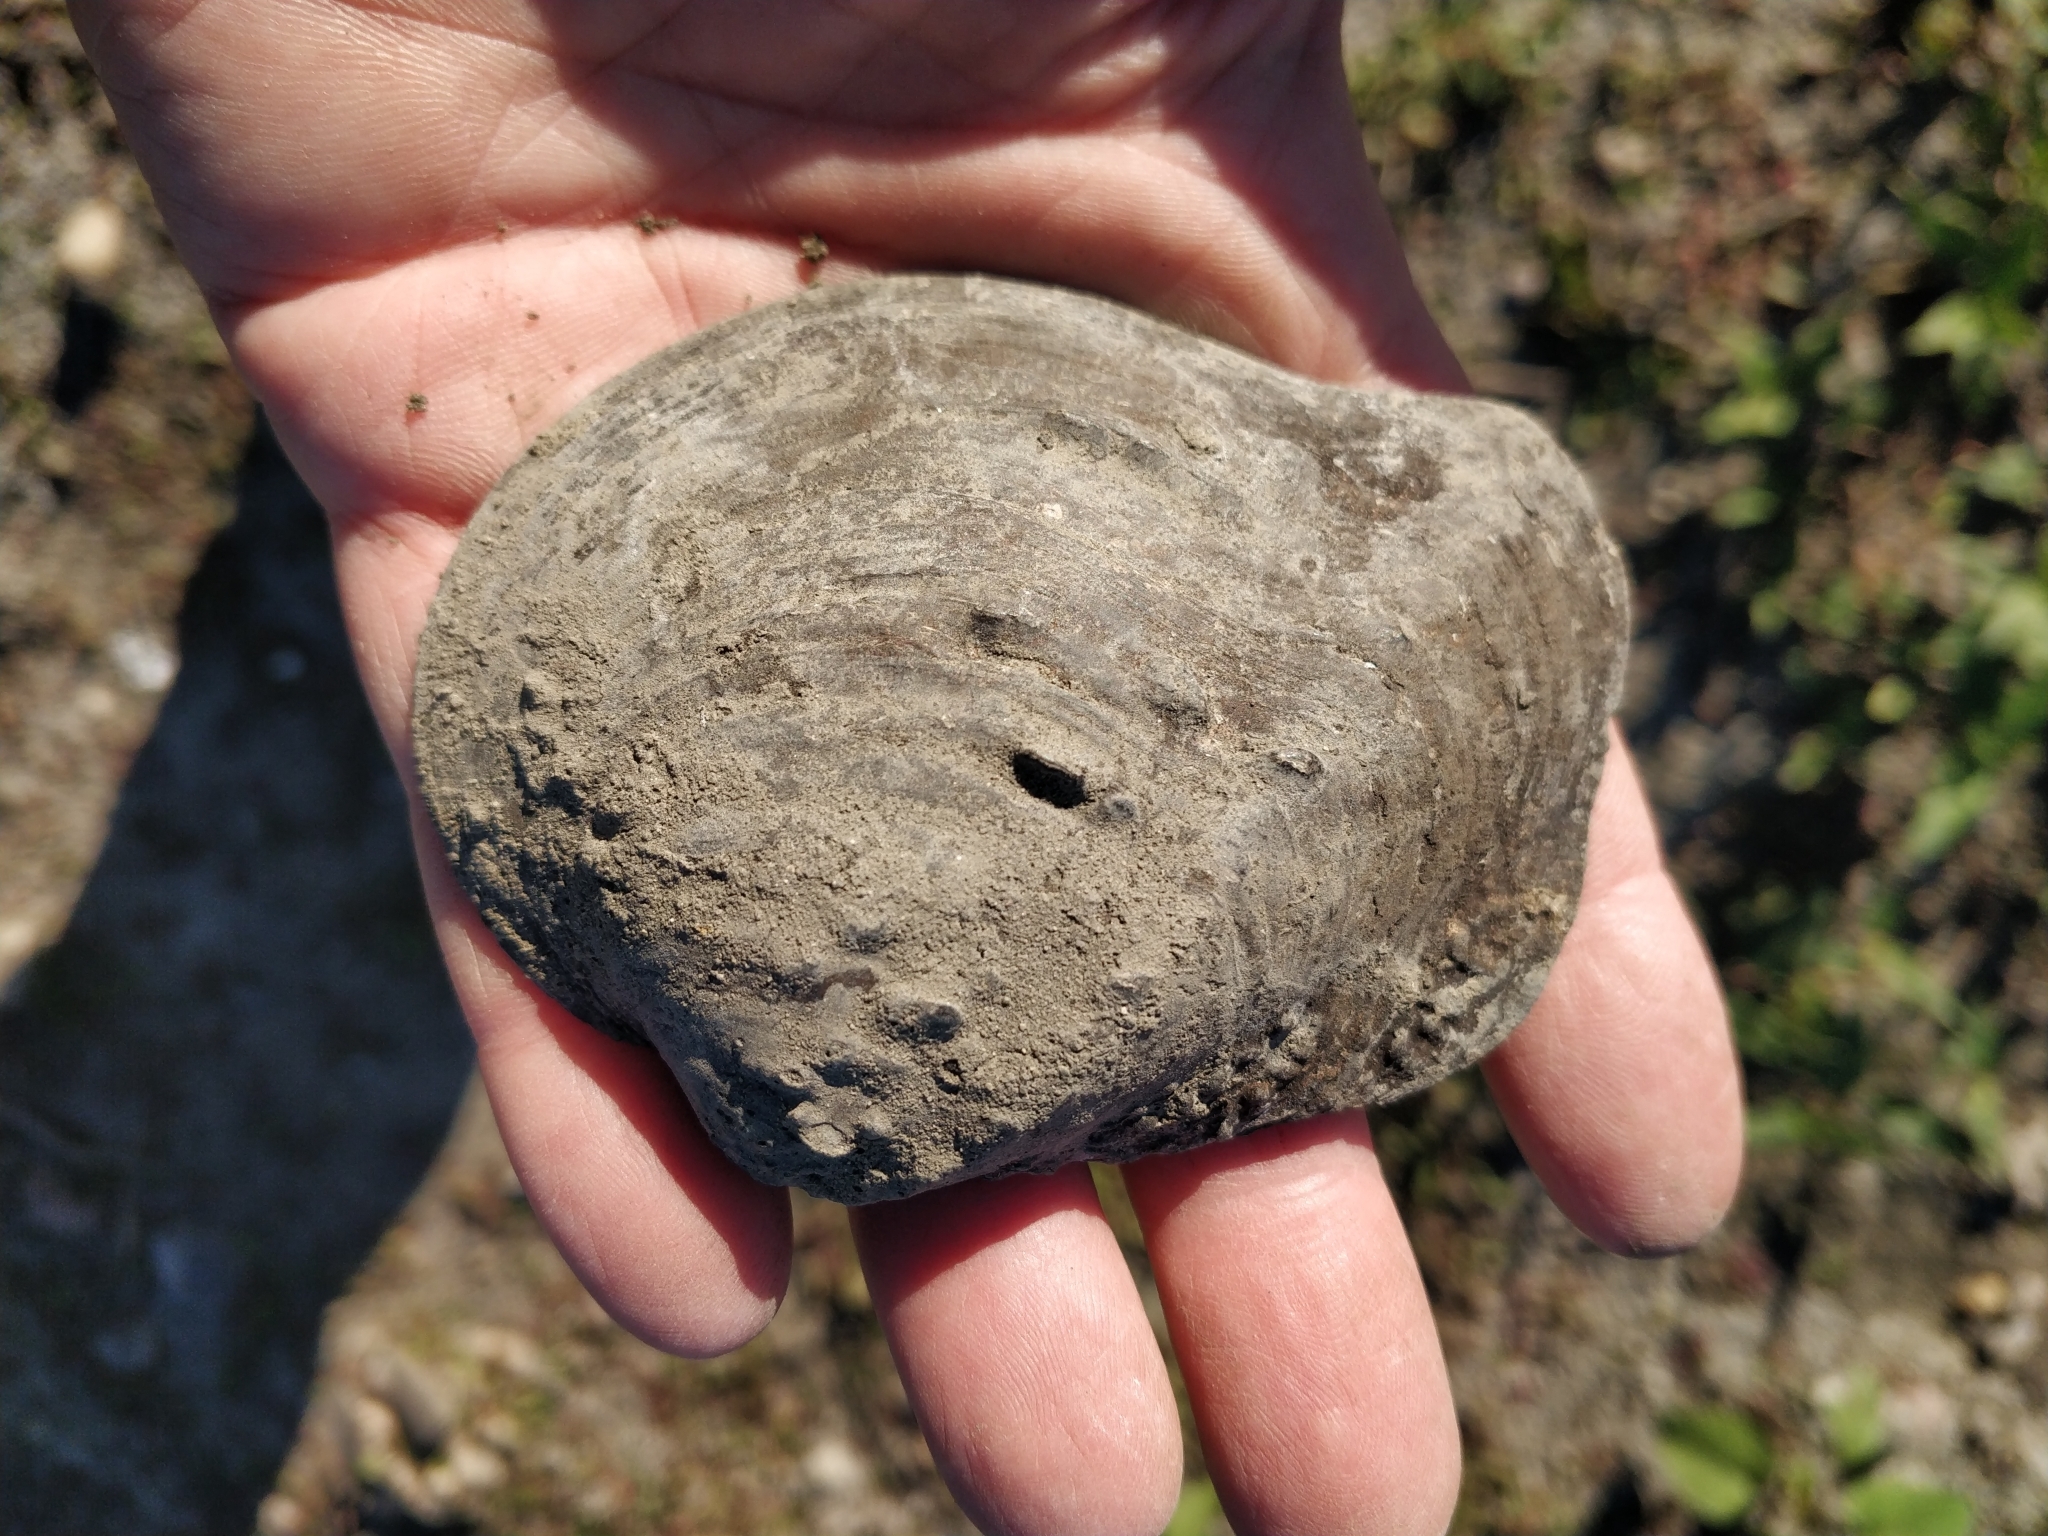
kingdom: Animalia
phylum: Mollusca
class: Bivalvia
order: Unionida
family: Unionidae
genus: Quadrula
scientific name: Quadrula quadrula
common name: Mapleleaf
